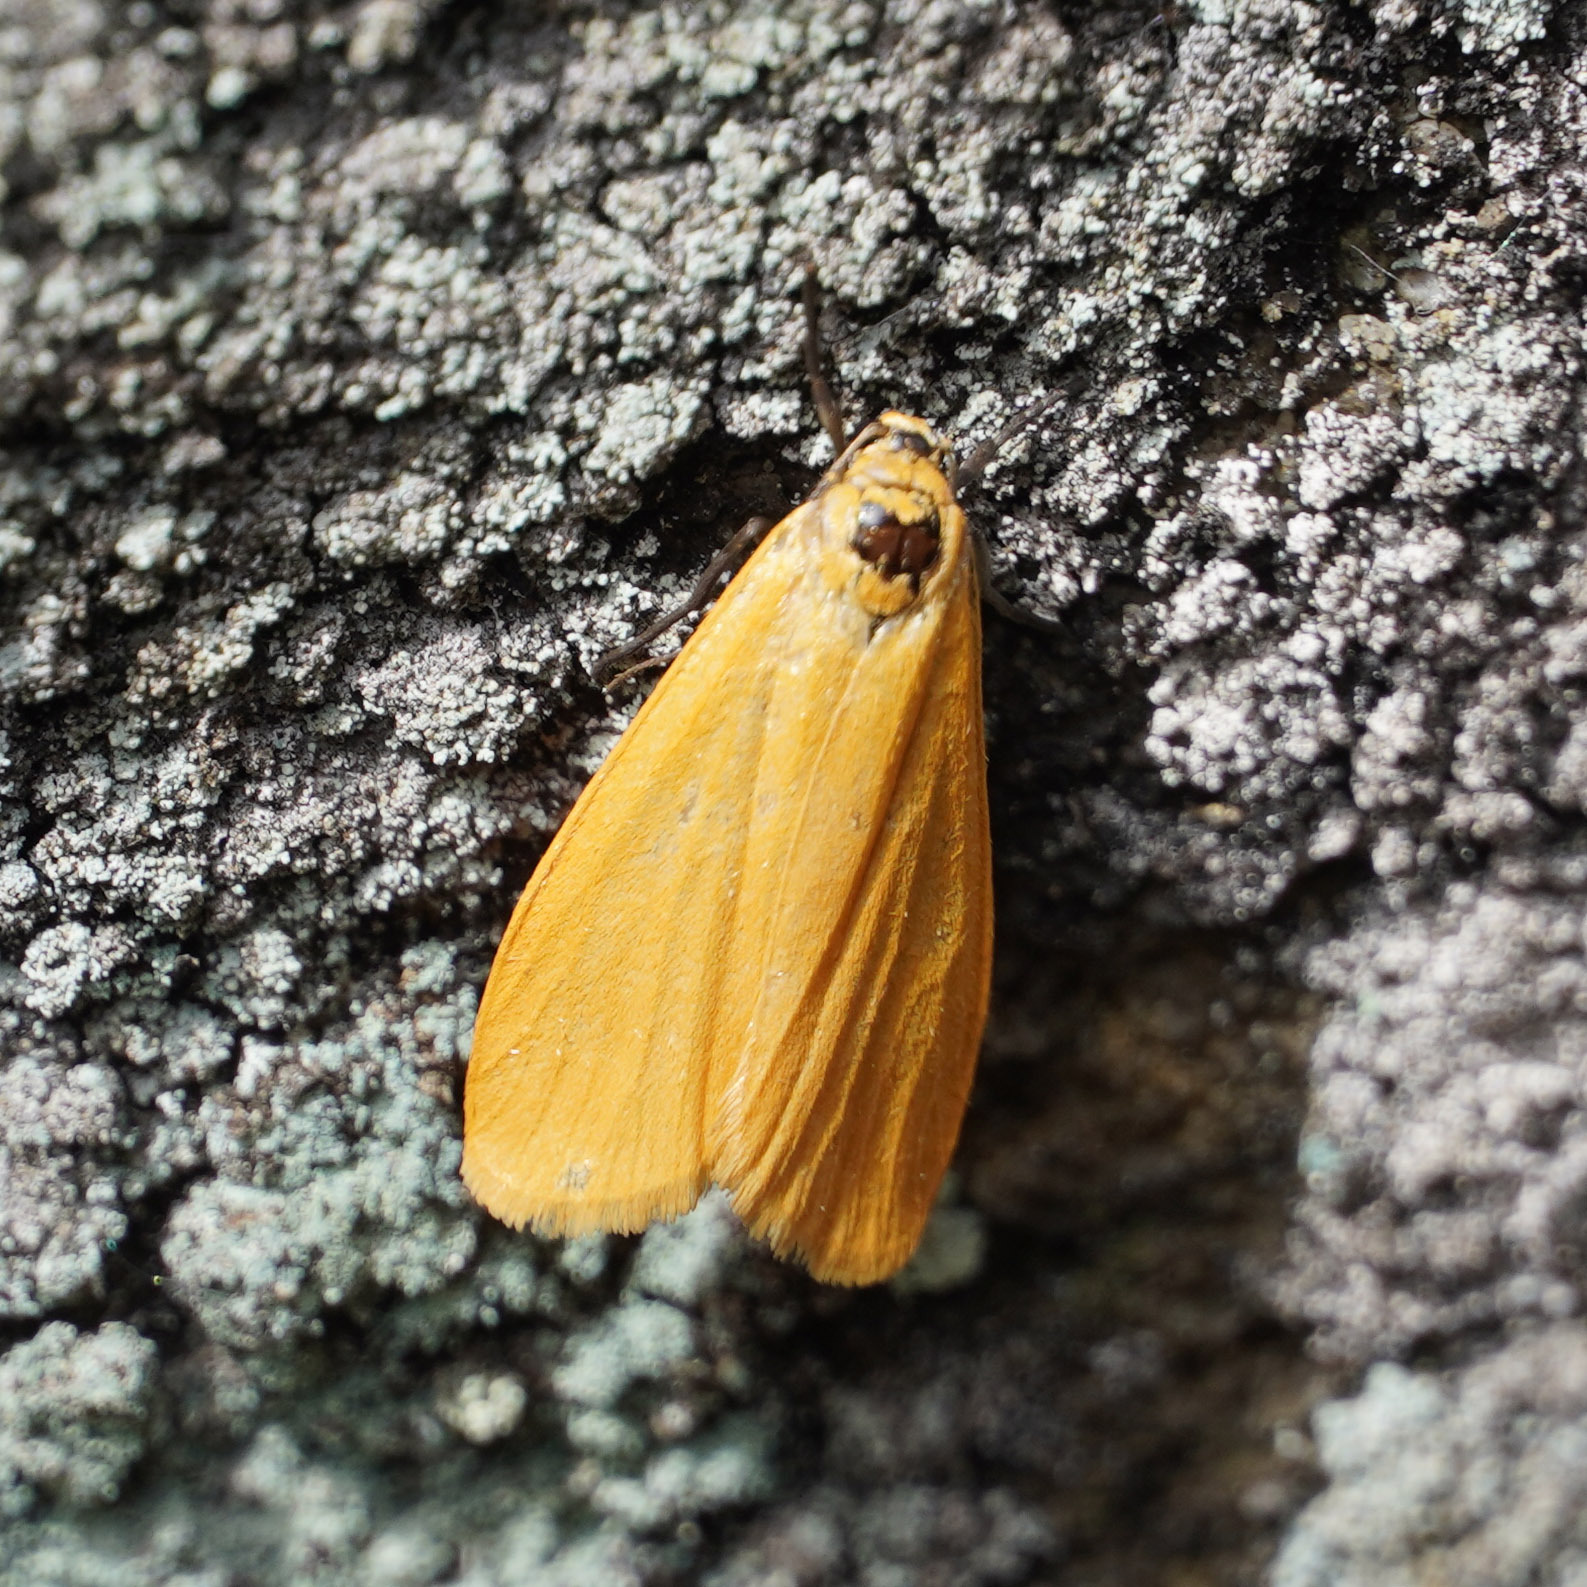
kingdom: Animalia
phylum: Arthropoda
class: Insecta
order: Lepidoptera
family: Erebidae
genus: Wittia
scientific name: Wittia sororcula
